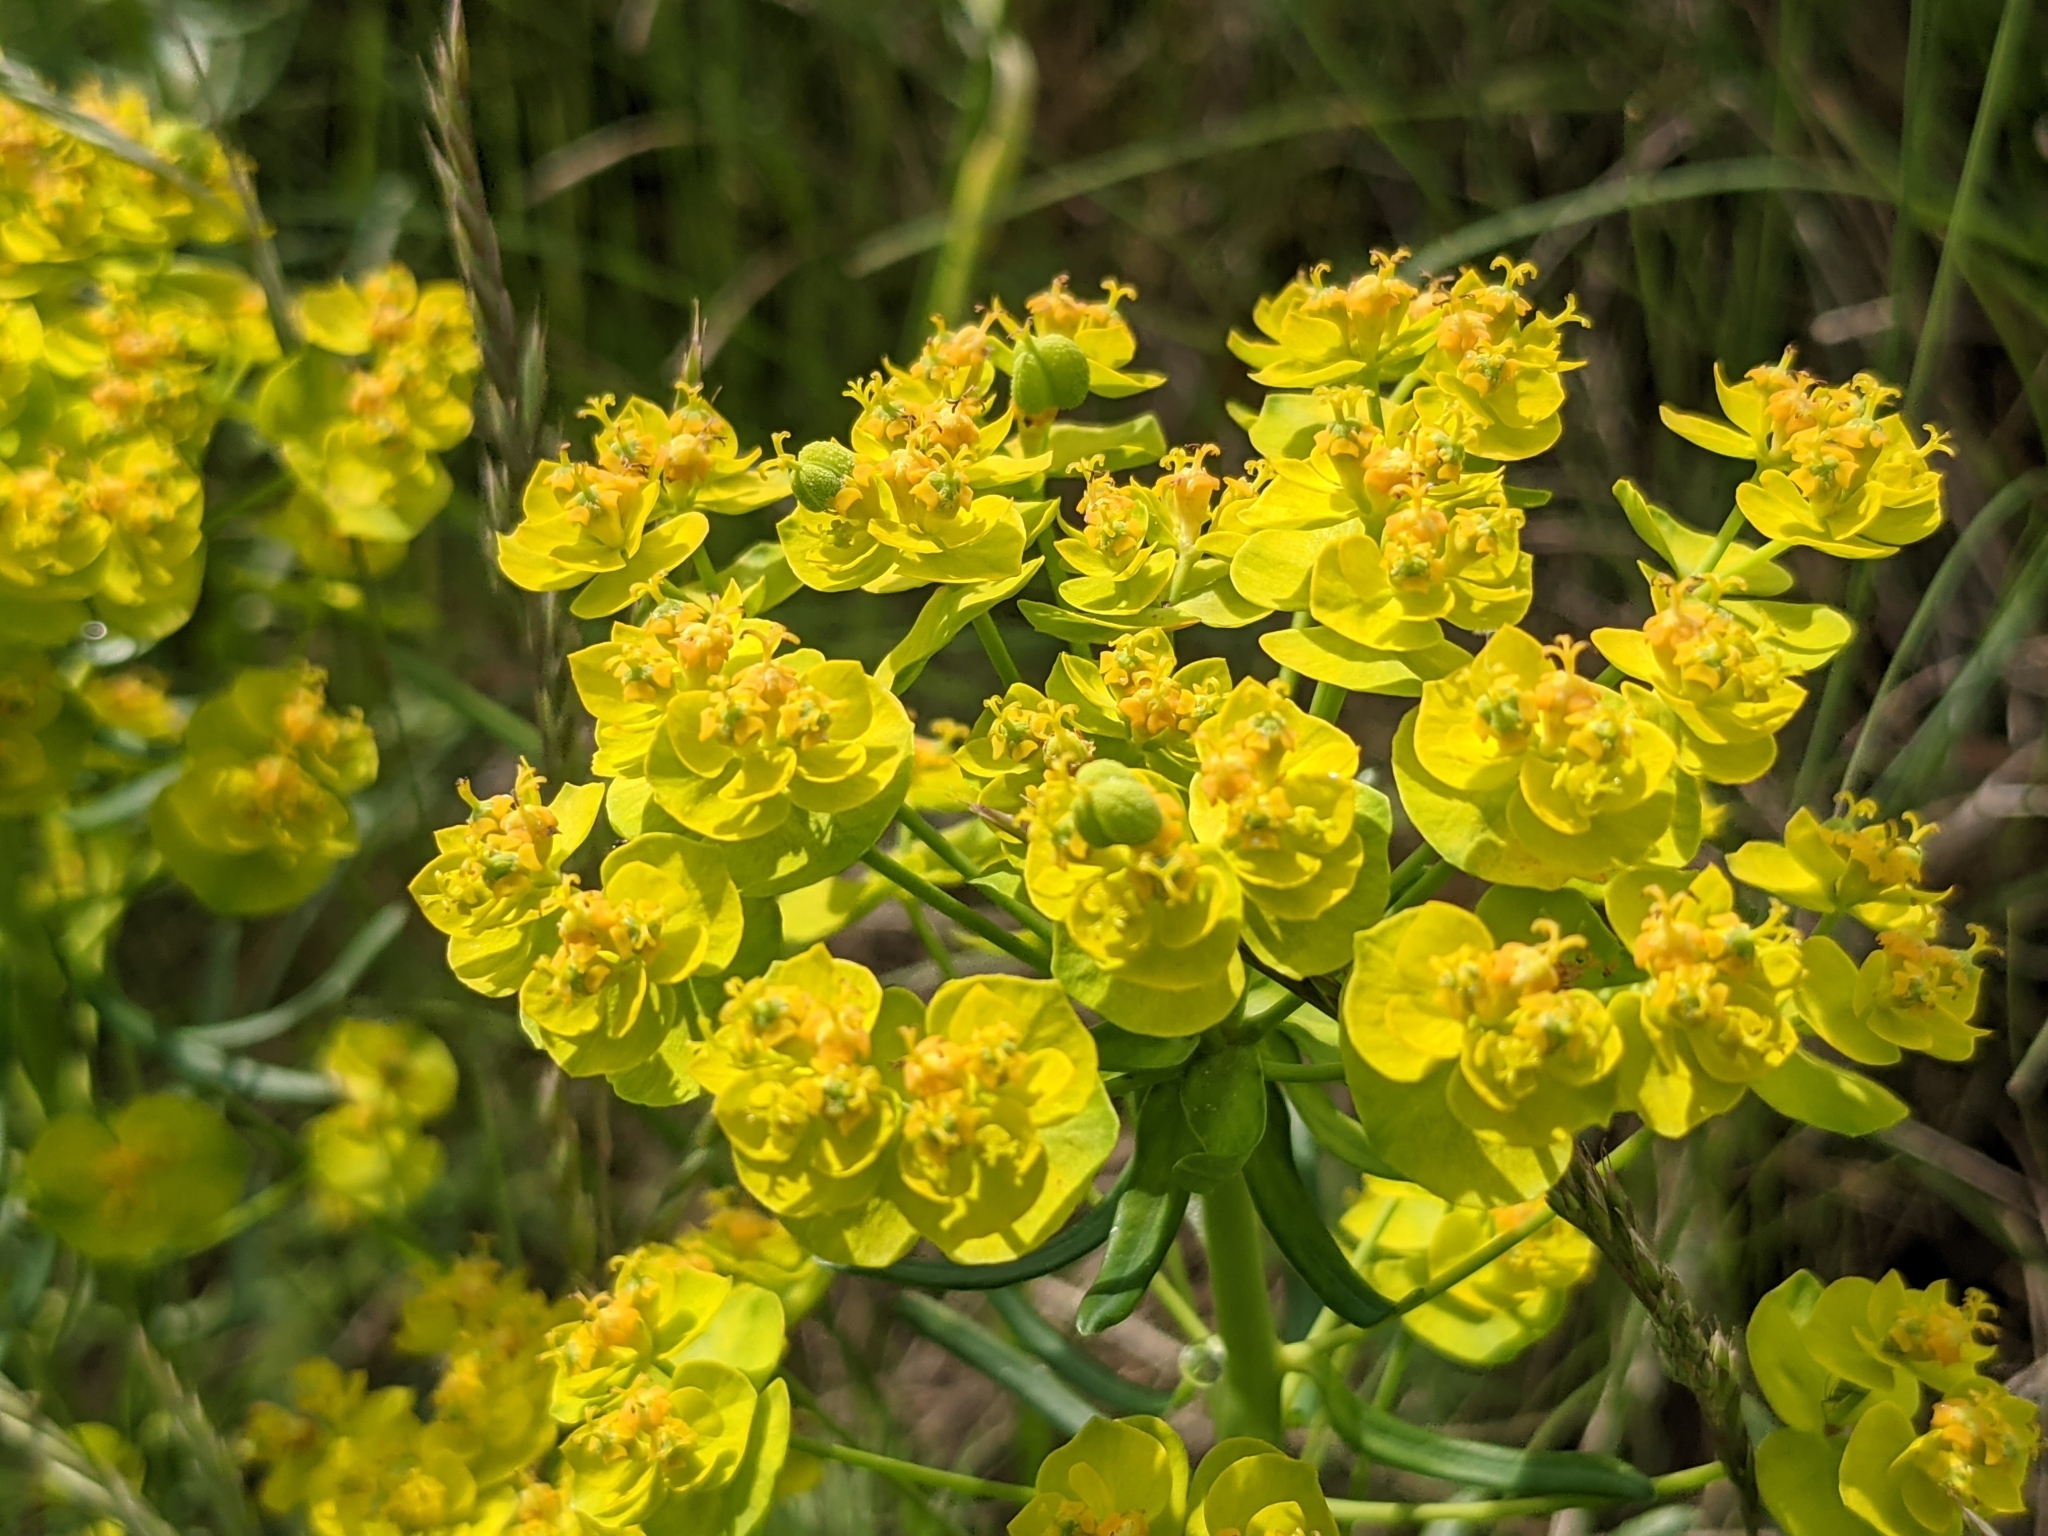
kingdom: Plantae
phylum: Tracheophyta
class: Magnoliopsida
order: Malpighiales
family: Euphorbiaceae
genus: Euphorbia
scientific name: Euphorbia cyparissias
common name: Cypress spurge
